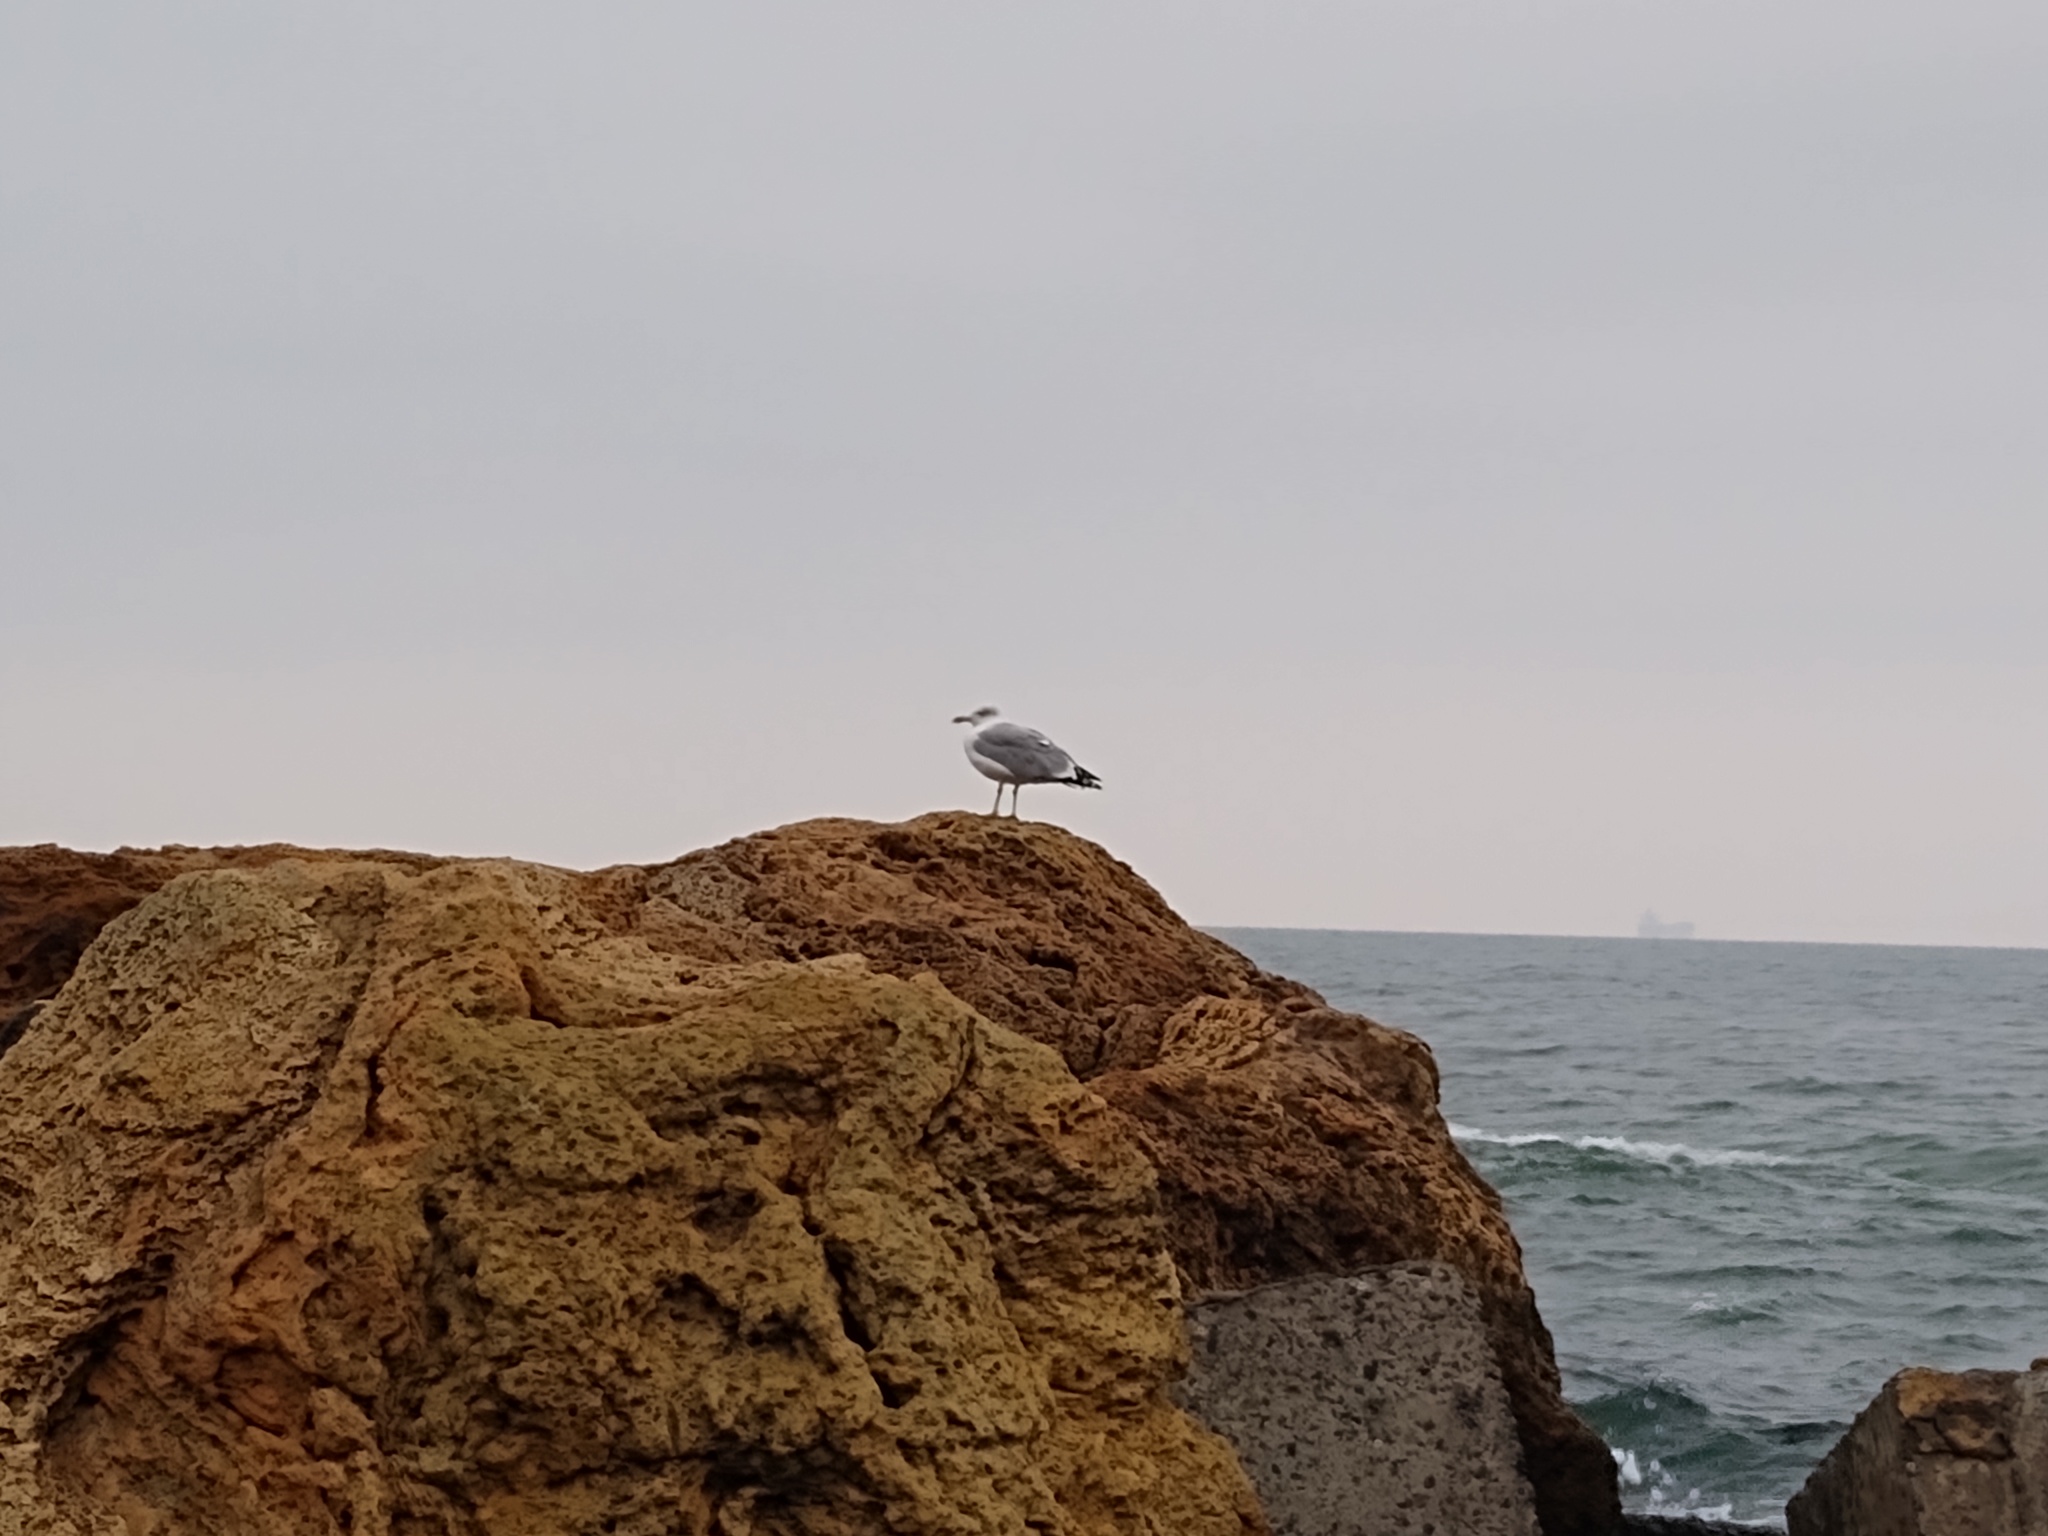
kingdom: Animalia
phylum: Chordata
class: Aves
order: Charadriiformes
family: Laridae
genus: Larus
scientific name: Larus michahellis
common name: Yellow-legged gull
